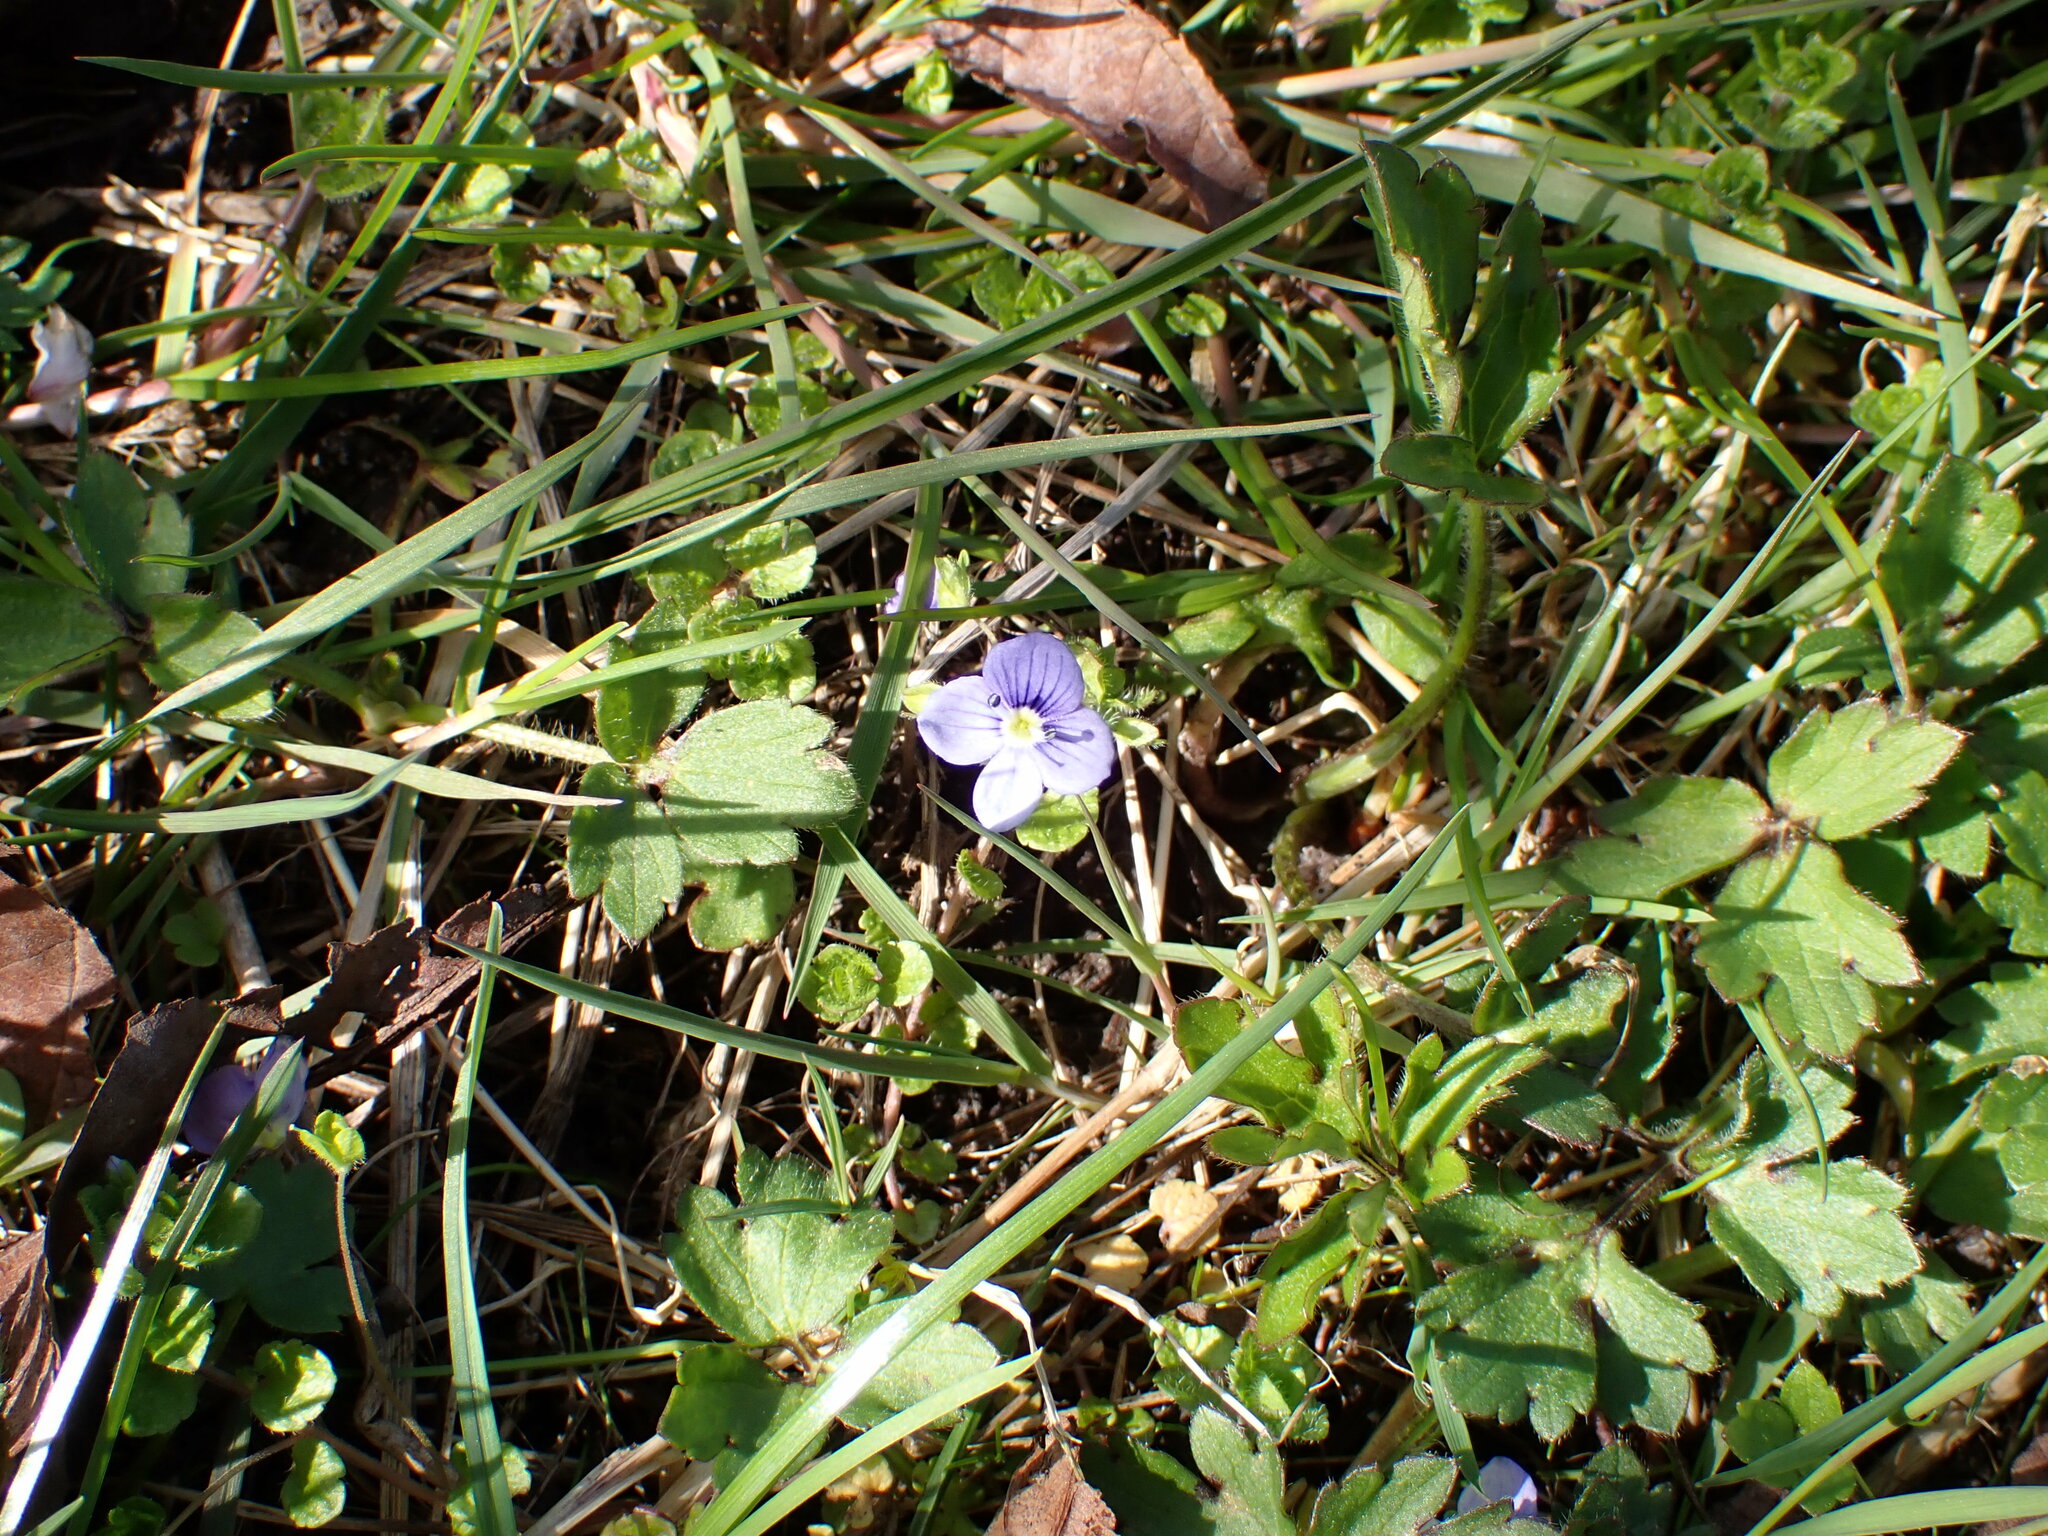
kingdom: Plantae
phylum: Tracheophyta
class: Magnoliopsida
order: Lamiales
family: Plantaginaceae
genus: Veronica
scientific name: Veronica filiformis
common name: Slender speedwell
